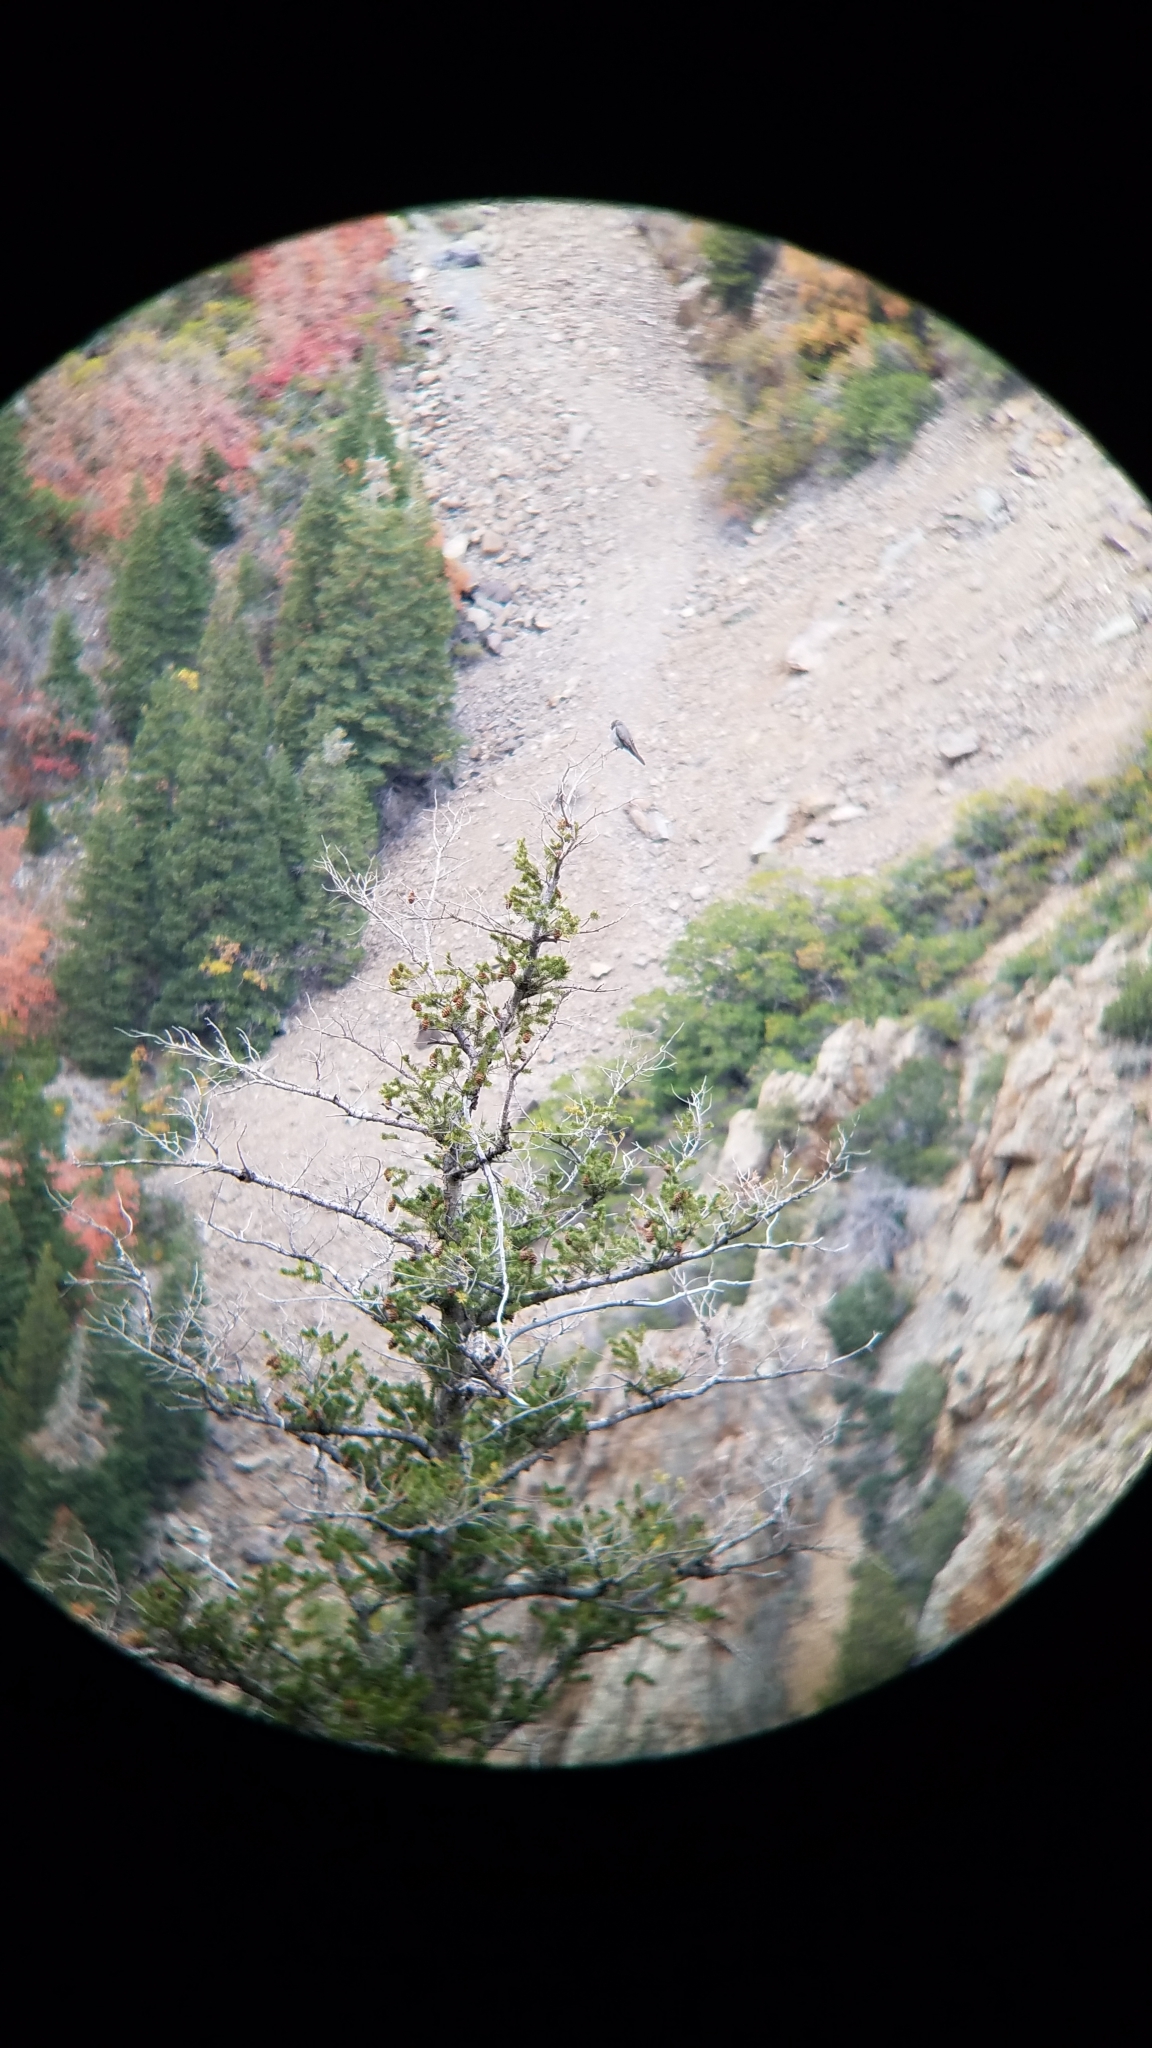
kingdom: Animalia
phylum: Chordata
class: Aves
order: Passeriformes
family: Turdidae
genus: Myadestes
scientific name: Myadestes townsendi
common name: Townsend's solitaire
